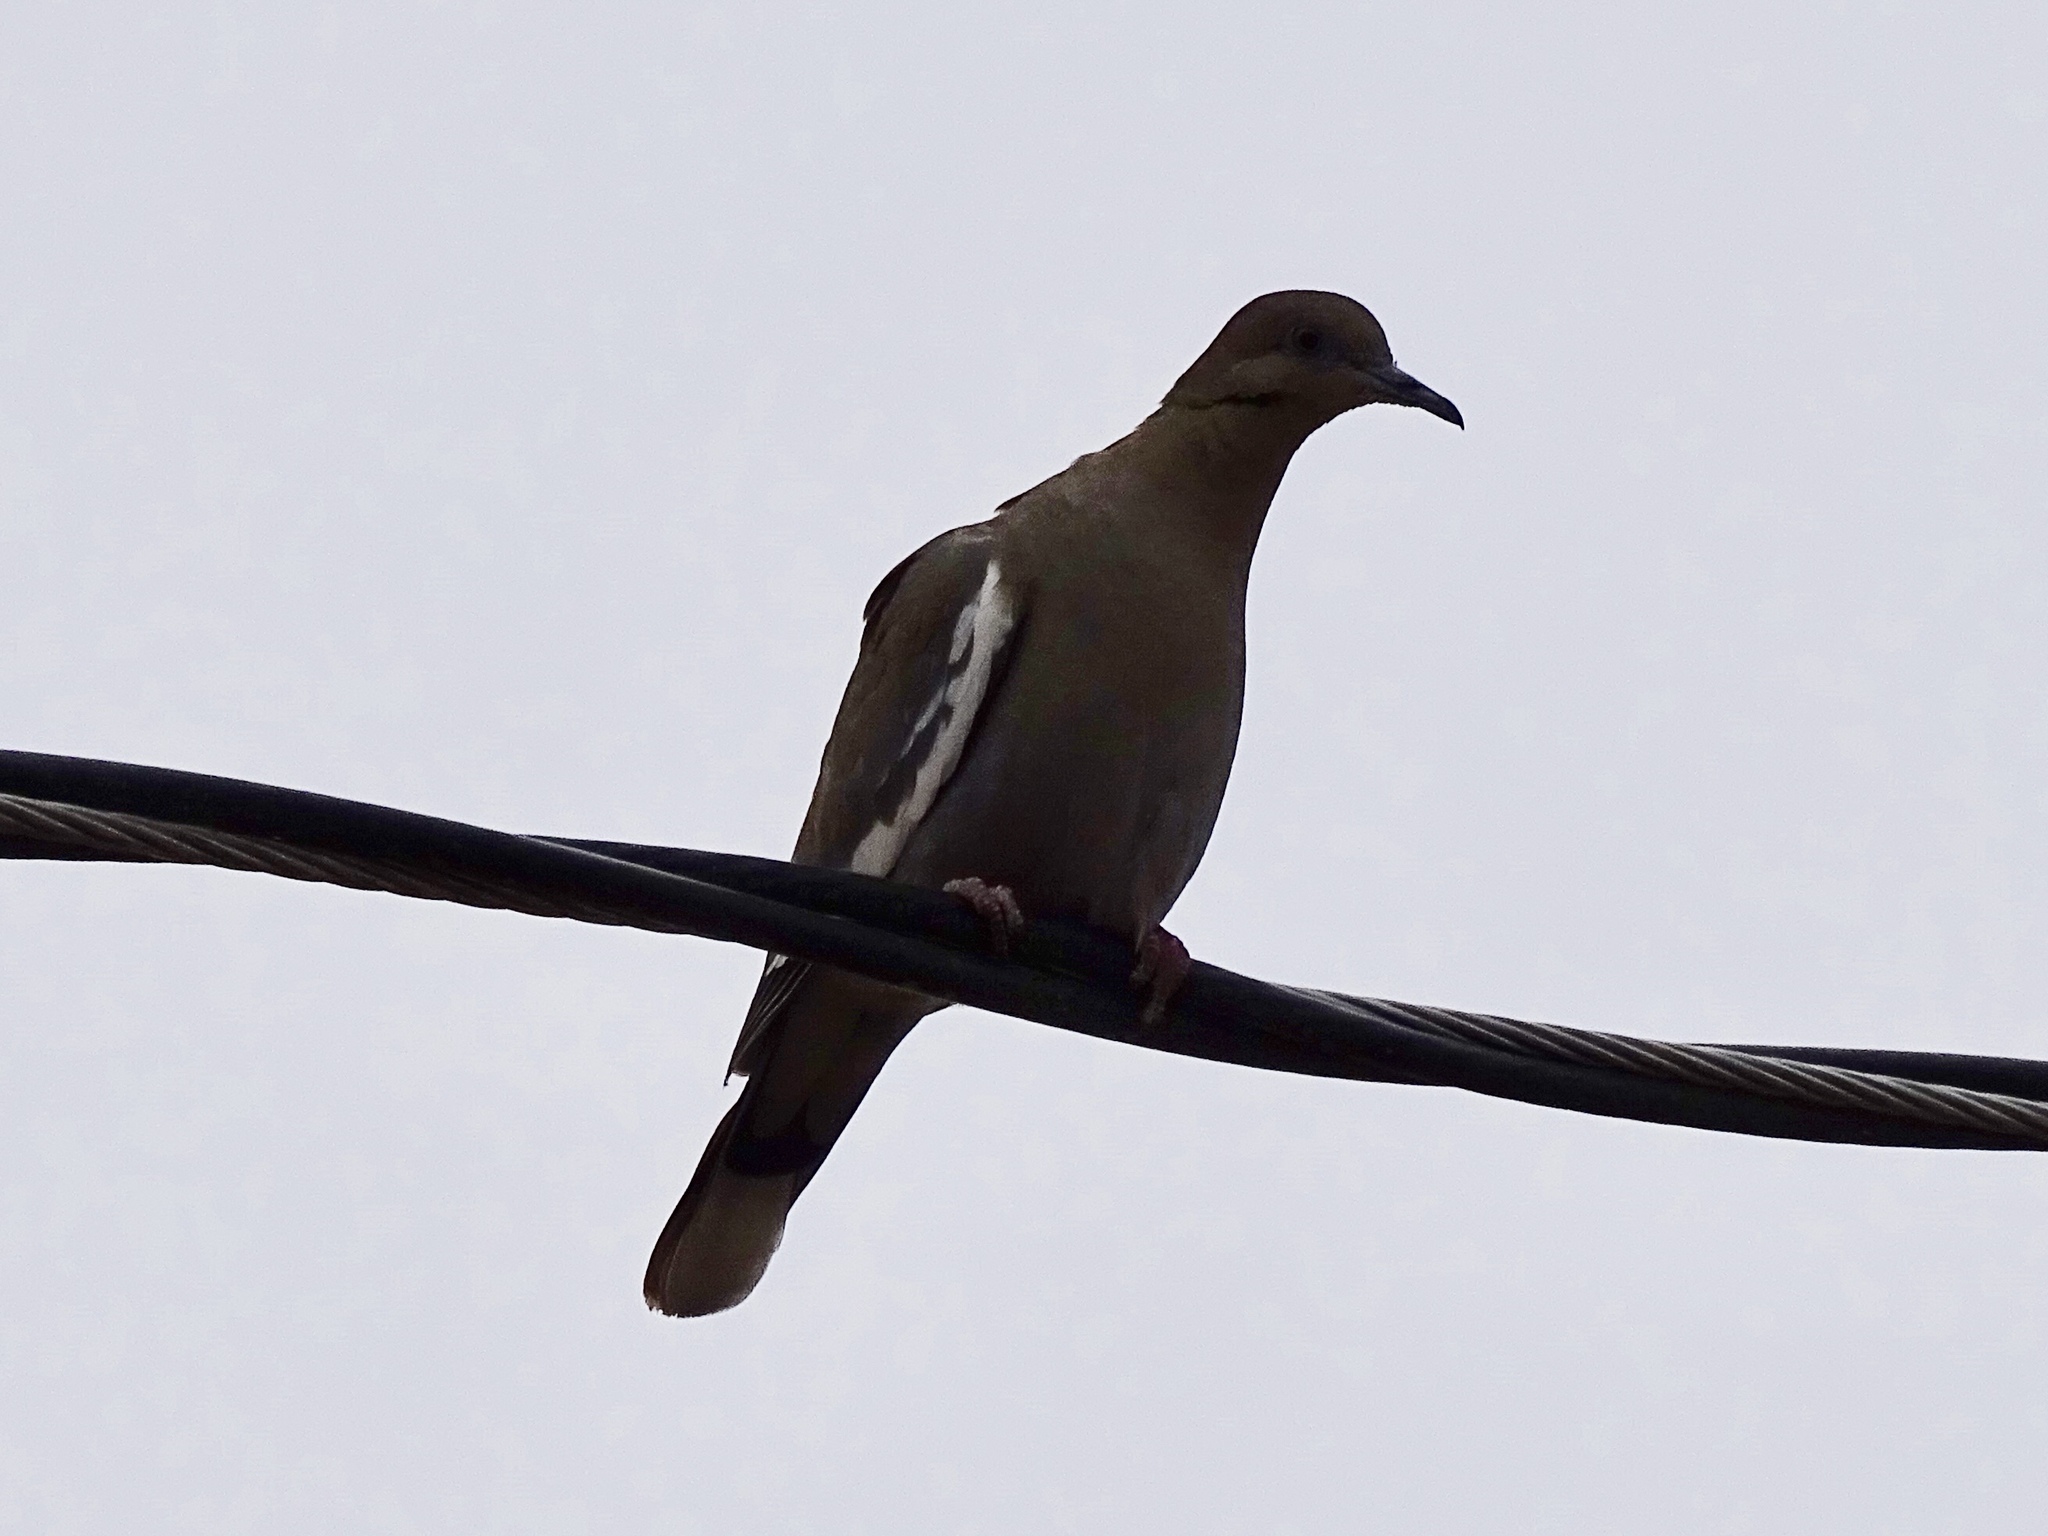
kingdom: Animalia
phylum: Chordata
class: Aves
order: Columbiformes
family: Columbidae
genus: Zenaida
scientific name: Zenaida asiatica
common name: White-winged dove
